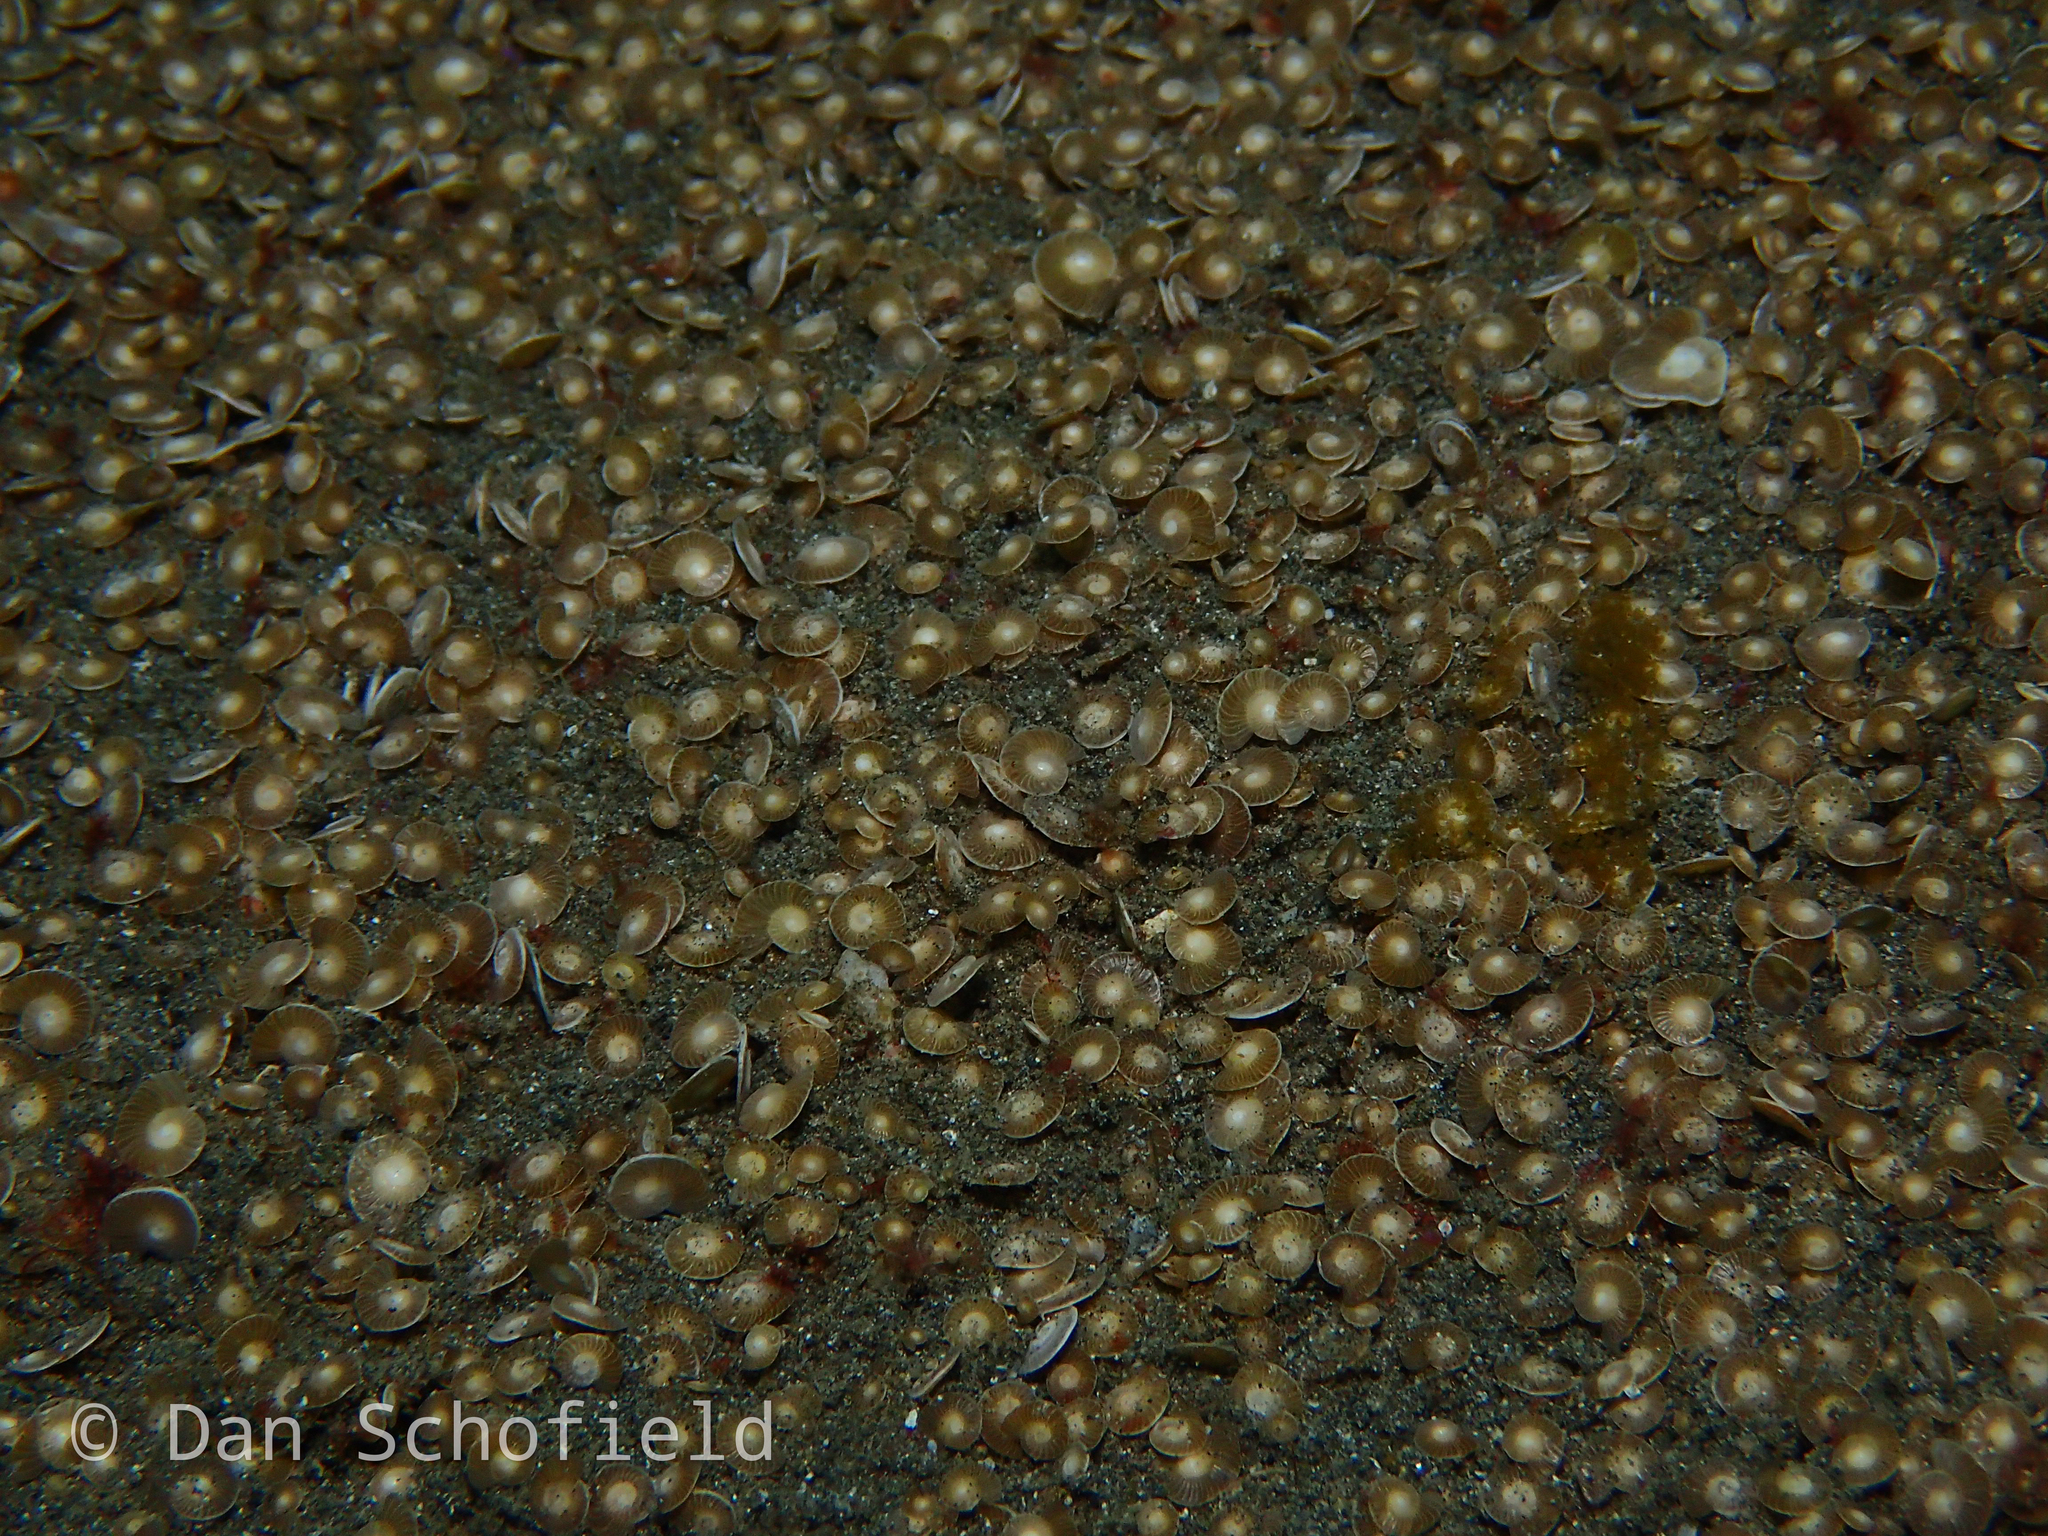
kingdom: Chromista
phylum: Foraminifera
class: Globothalamea
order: Rotaliida
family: Nummulitidae
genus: Operculina
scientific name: Operculina ammonoides
